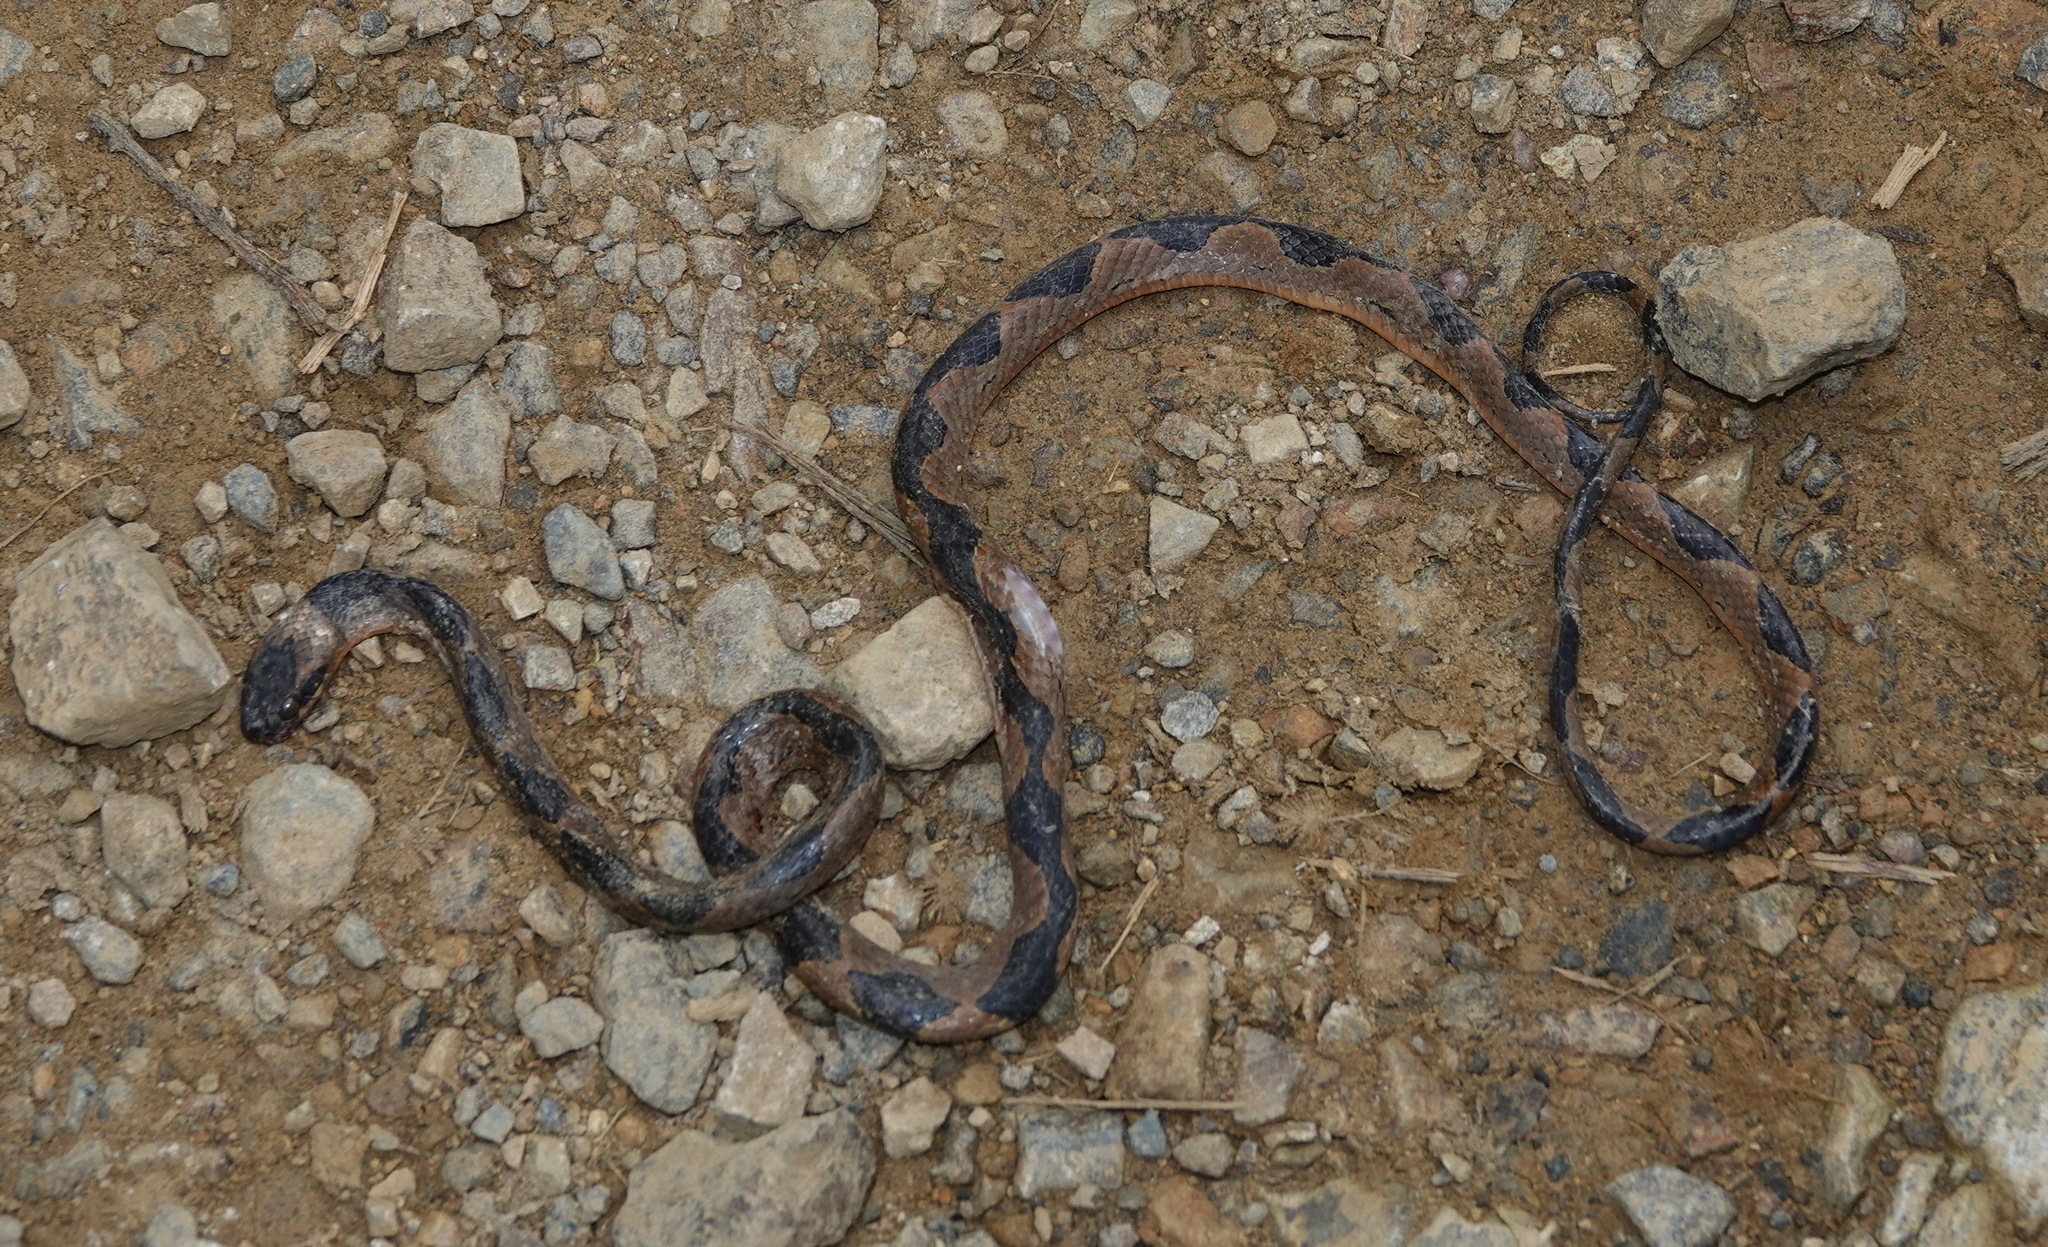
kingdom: Animalia
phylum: Chordata
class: Squamata
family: Colubridae
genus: Leptodeira
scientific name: Leptodeira annulata
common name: Banded cat-eyed snake
